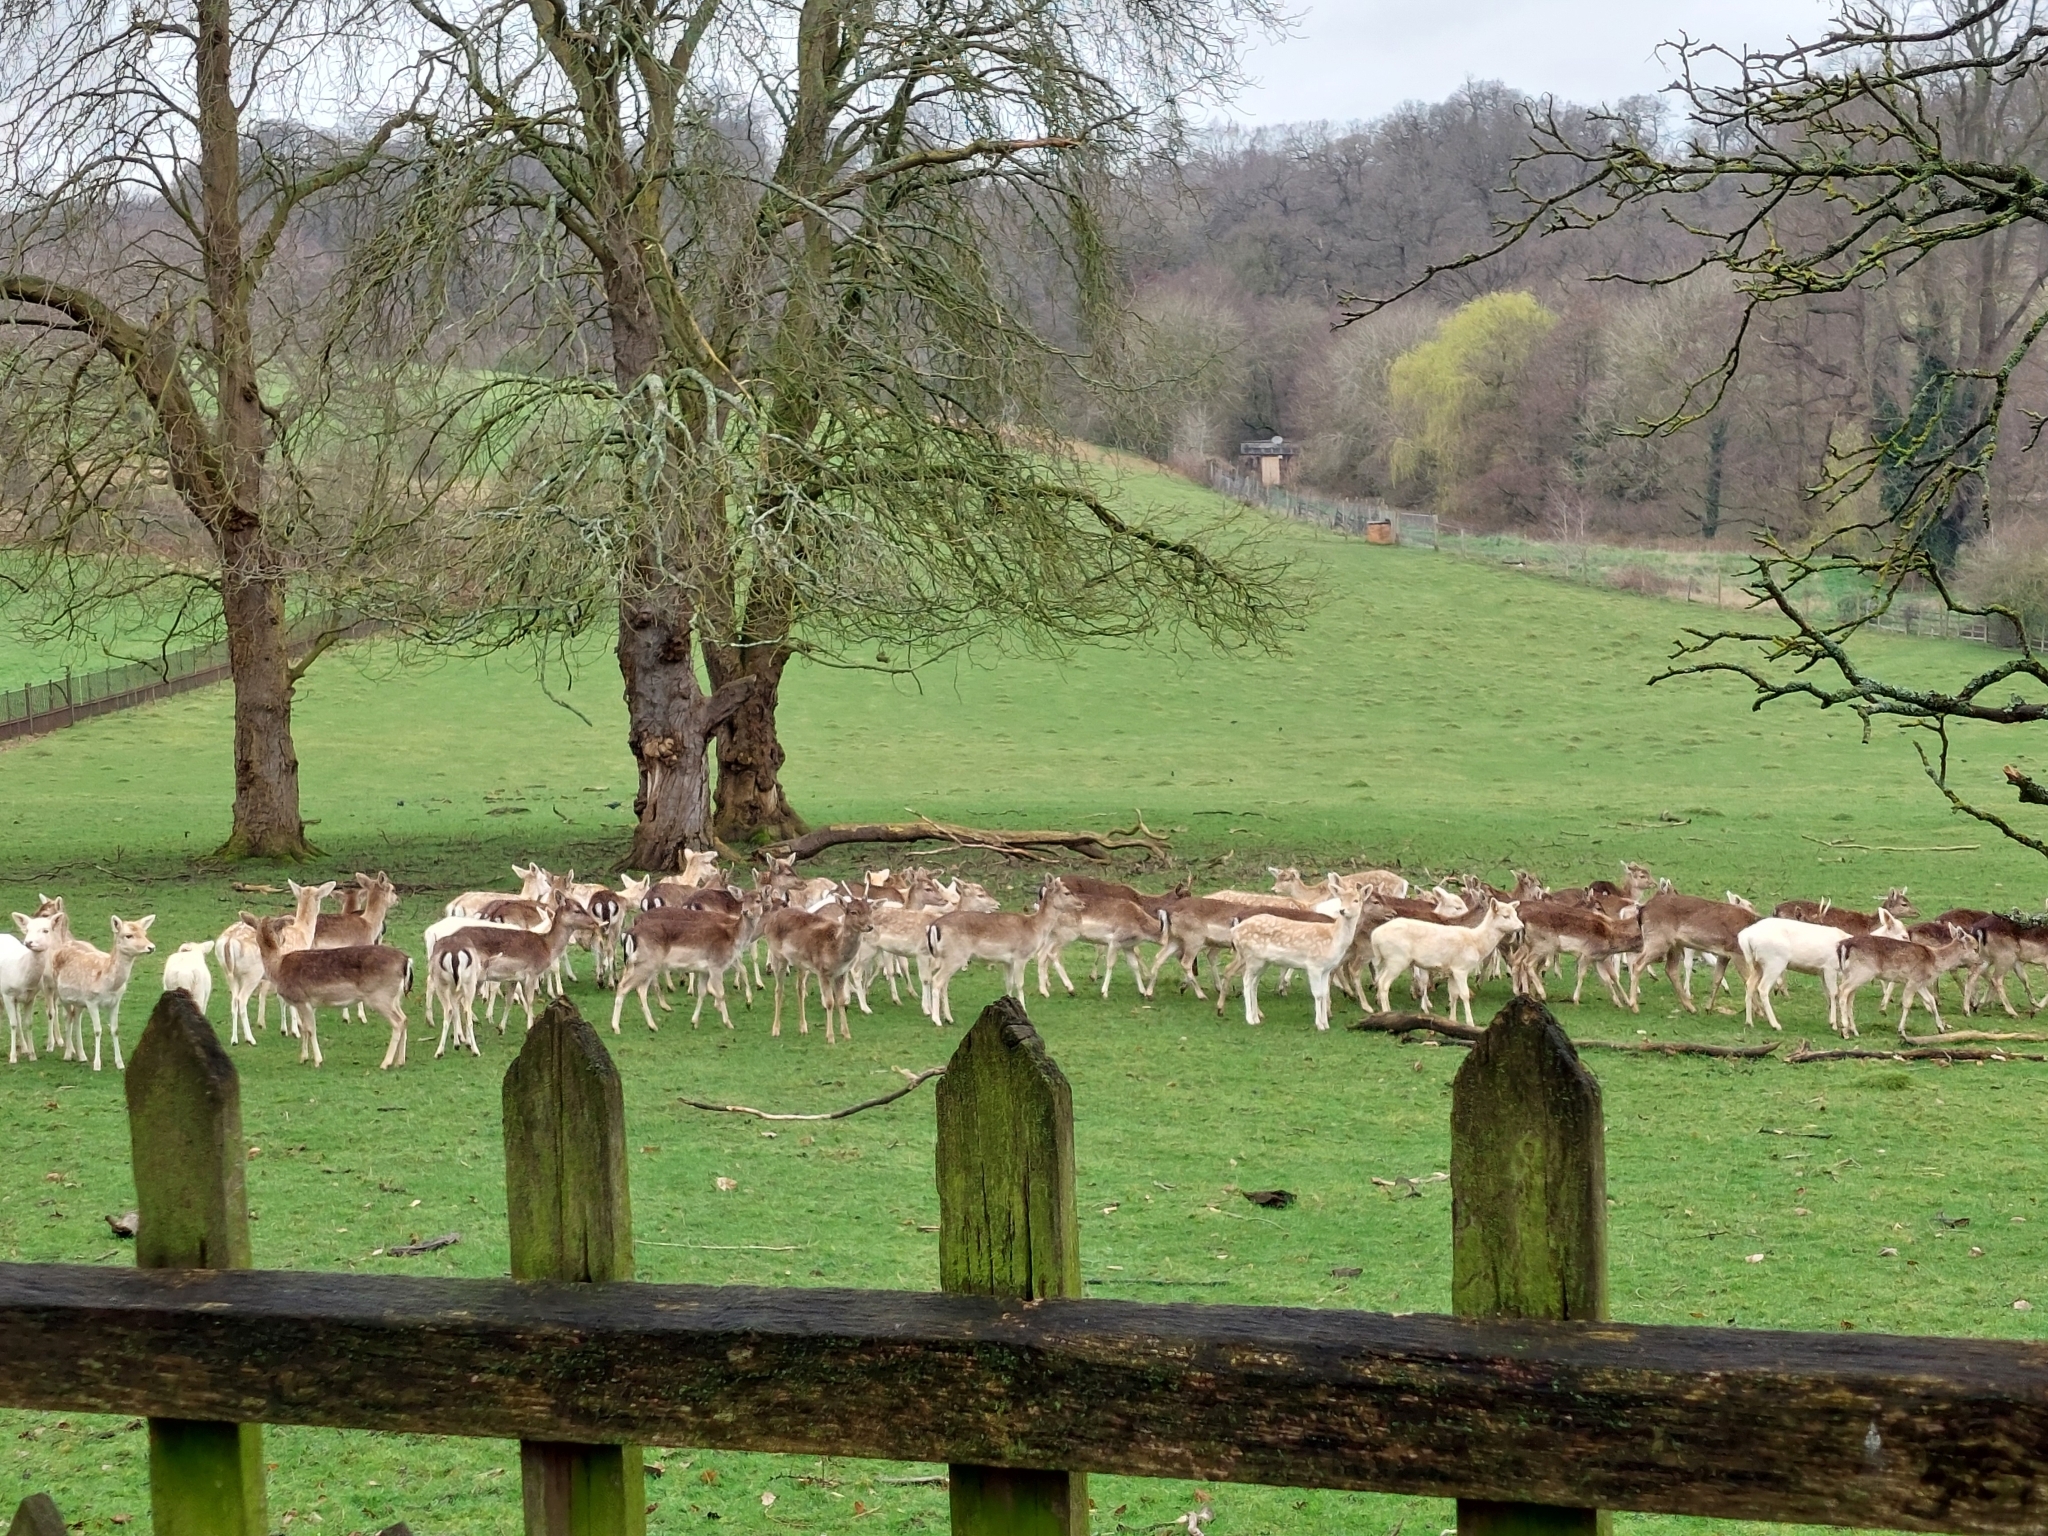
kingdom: Animalia
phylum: Chordata
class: Mammalia
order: Artiodactyla
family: Cervidae
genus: Dama
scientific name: Dama dama
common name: Fallow deer
